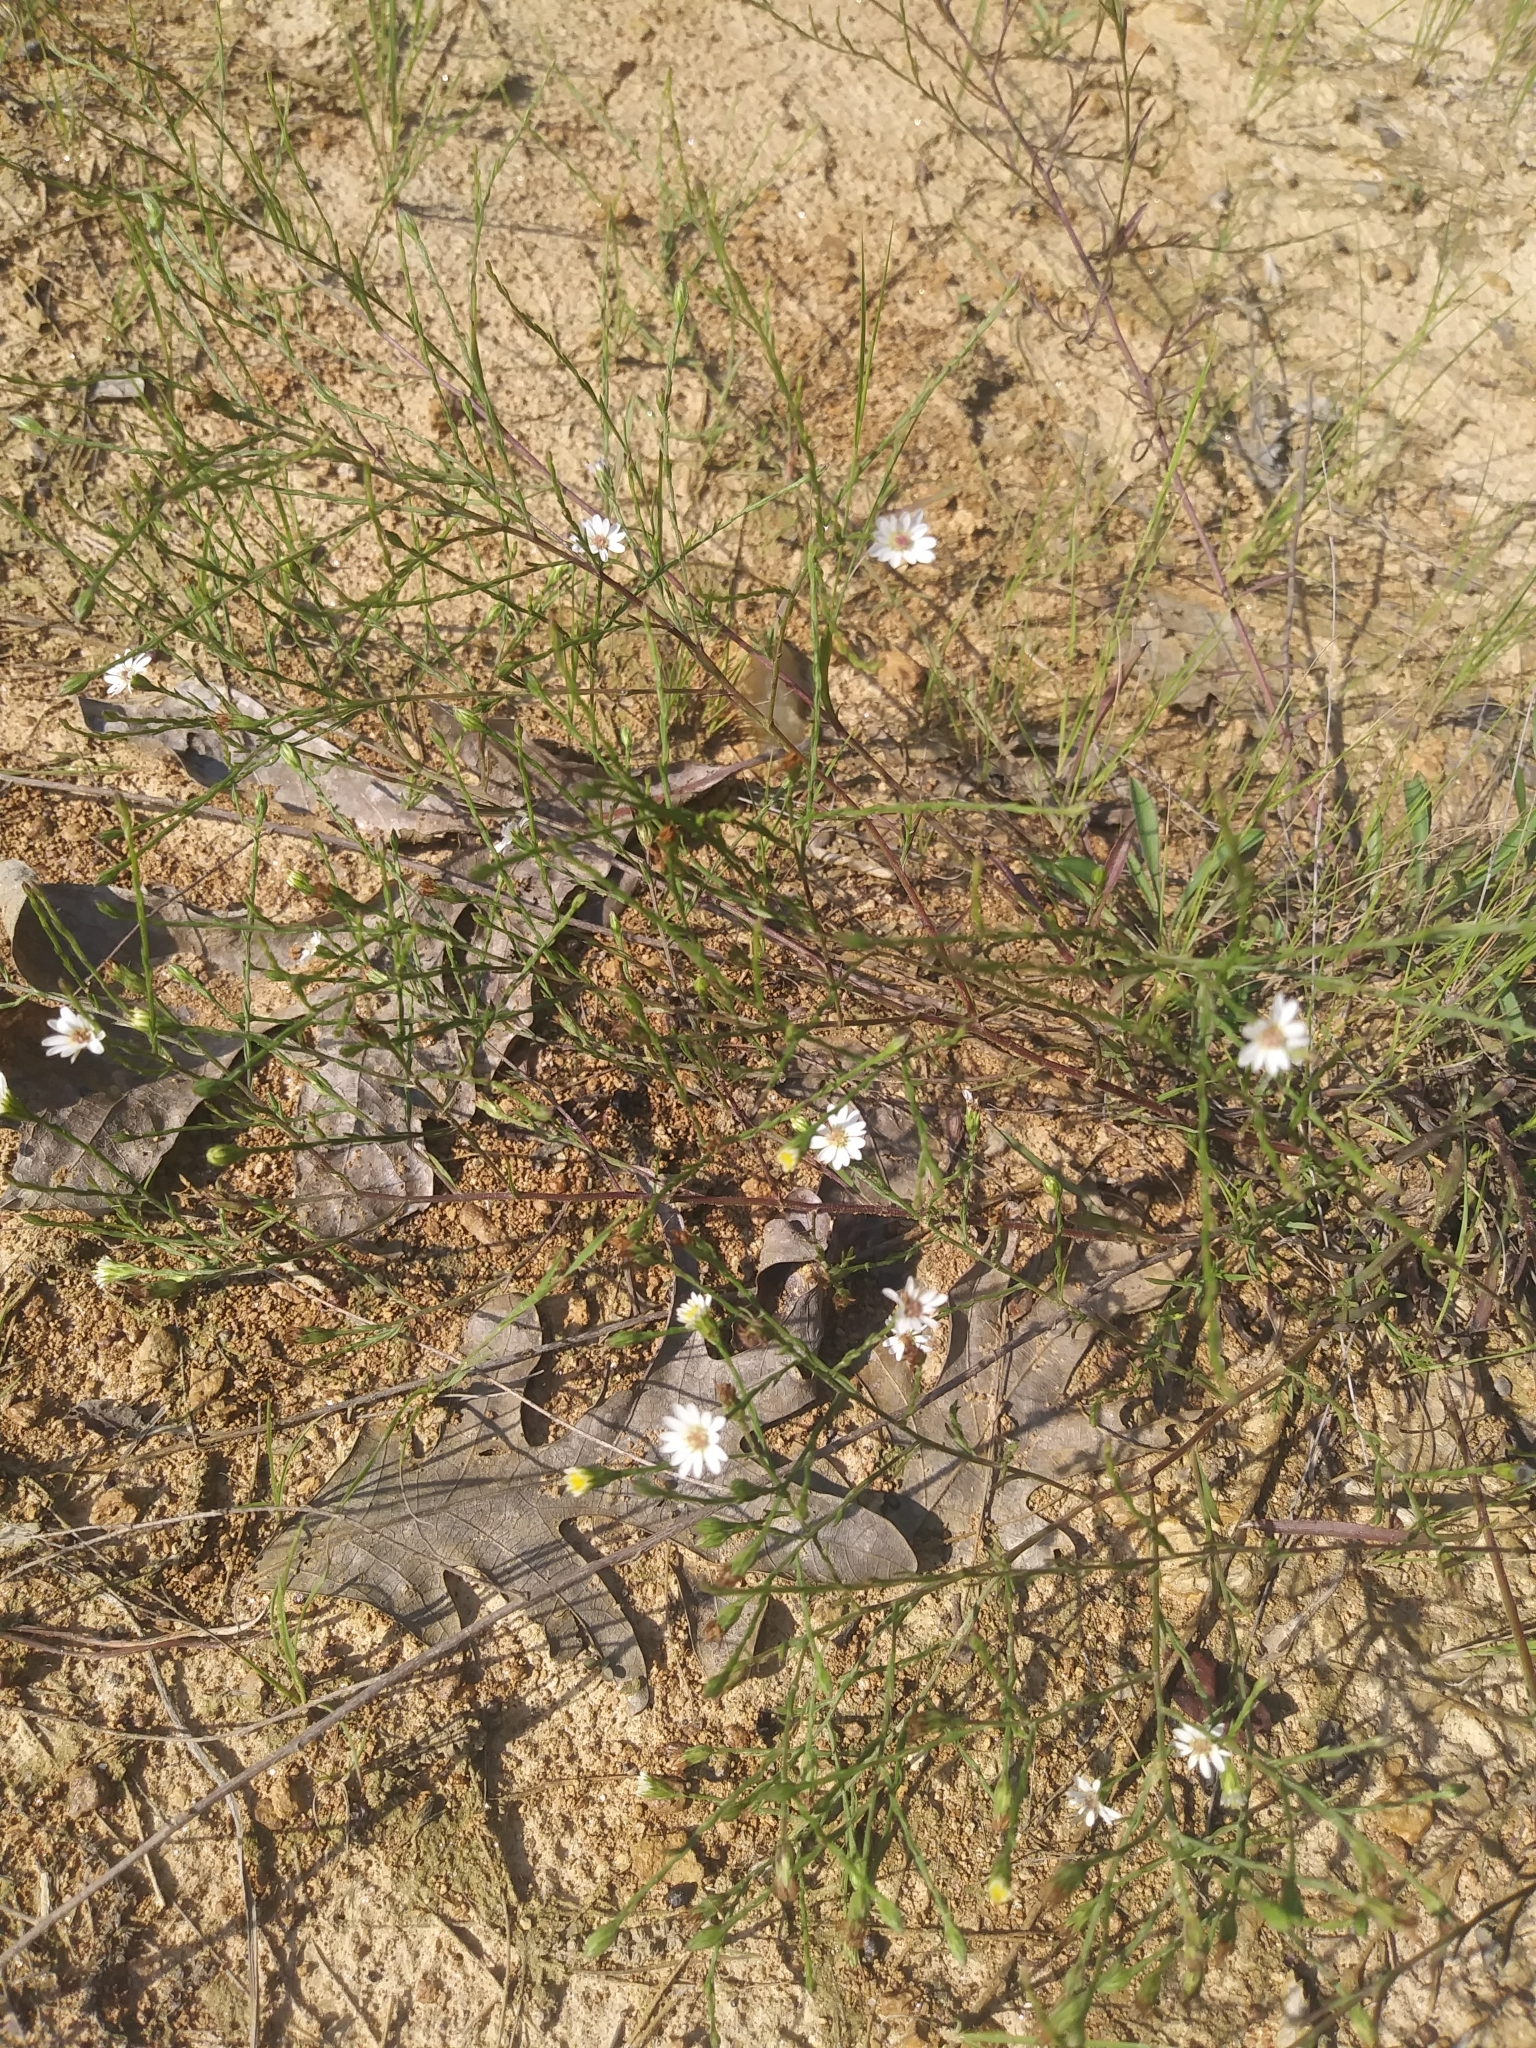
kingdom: Plantae
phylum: Tracheophyta
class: Magnoliopsida
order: Asterales
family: Asteraceae
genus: Symphyotrichum
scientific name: Symphyotrichum depauperatum
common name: Serpentine aster
